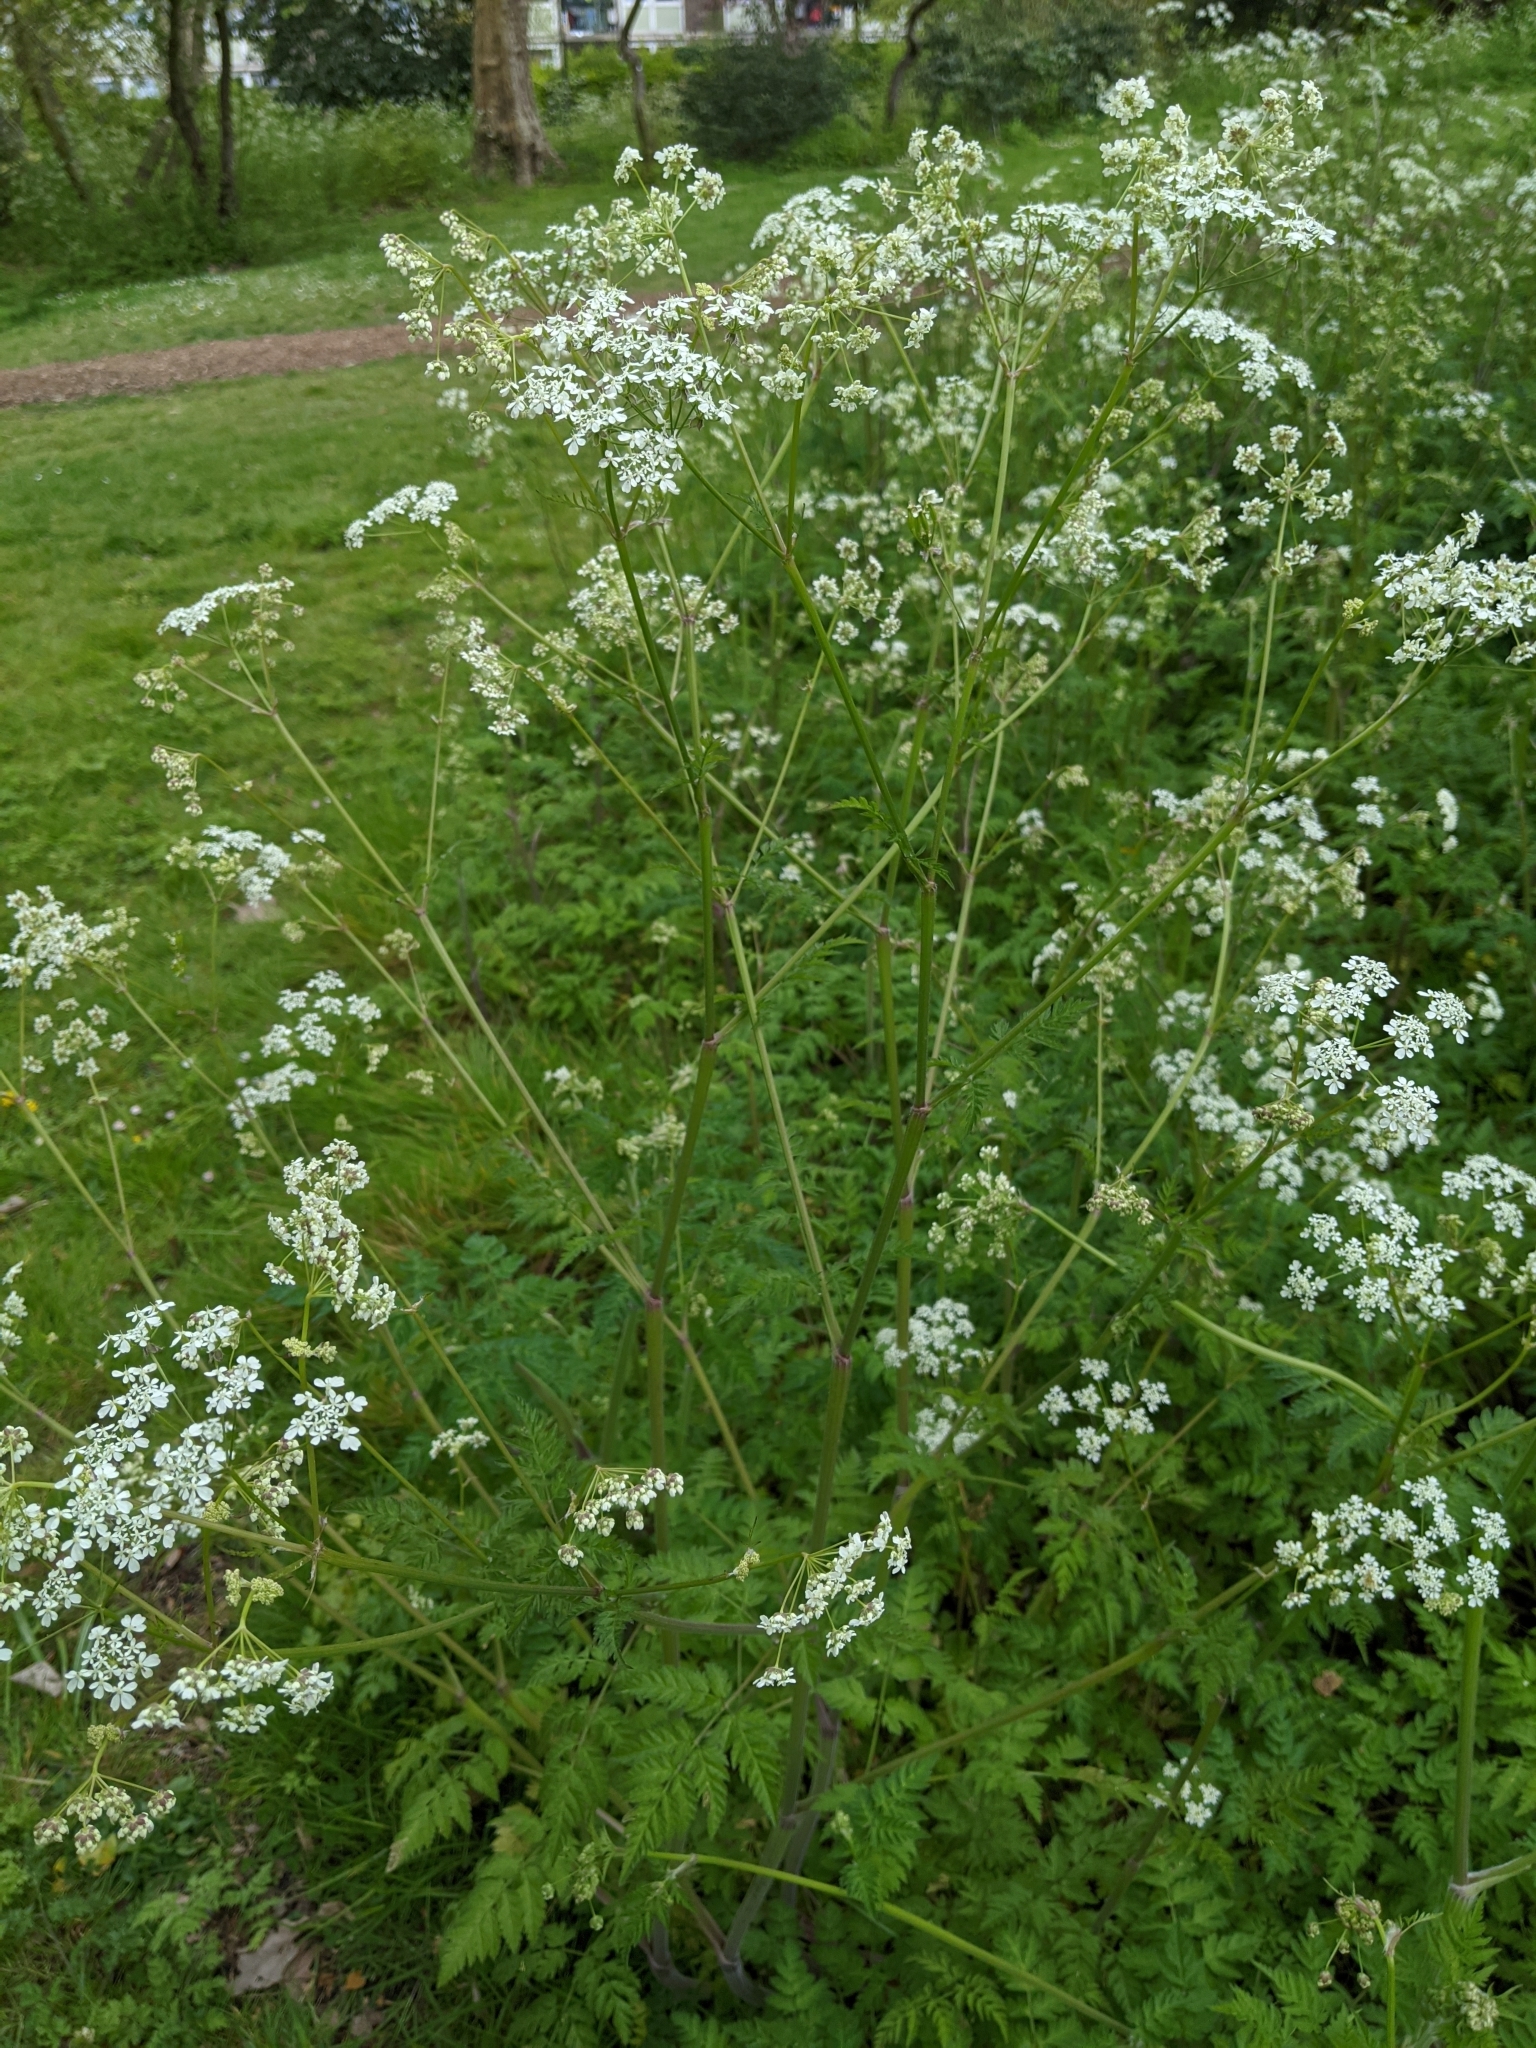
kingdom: Plantae
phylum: Tracheophyta
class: Magnoliopsida
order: Apiales
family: Apiaceae
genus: Anthriscus
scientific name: Anthriscus sylvestris
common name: Cow parsley
